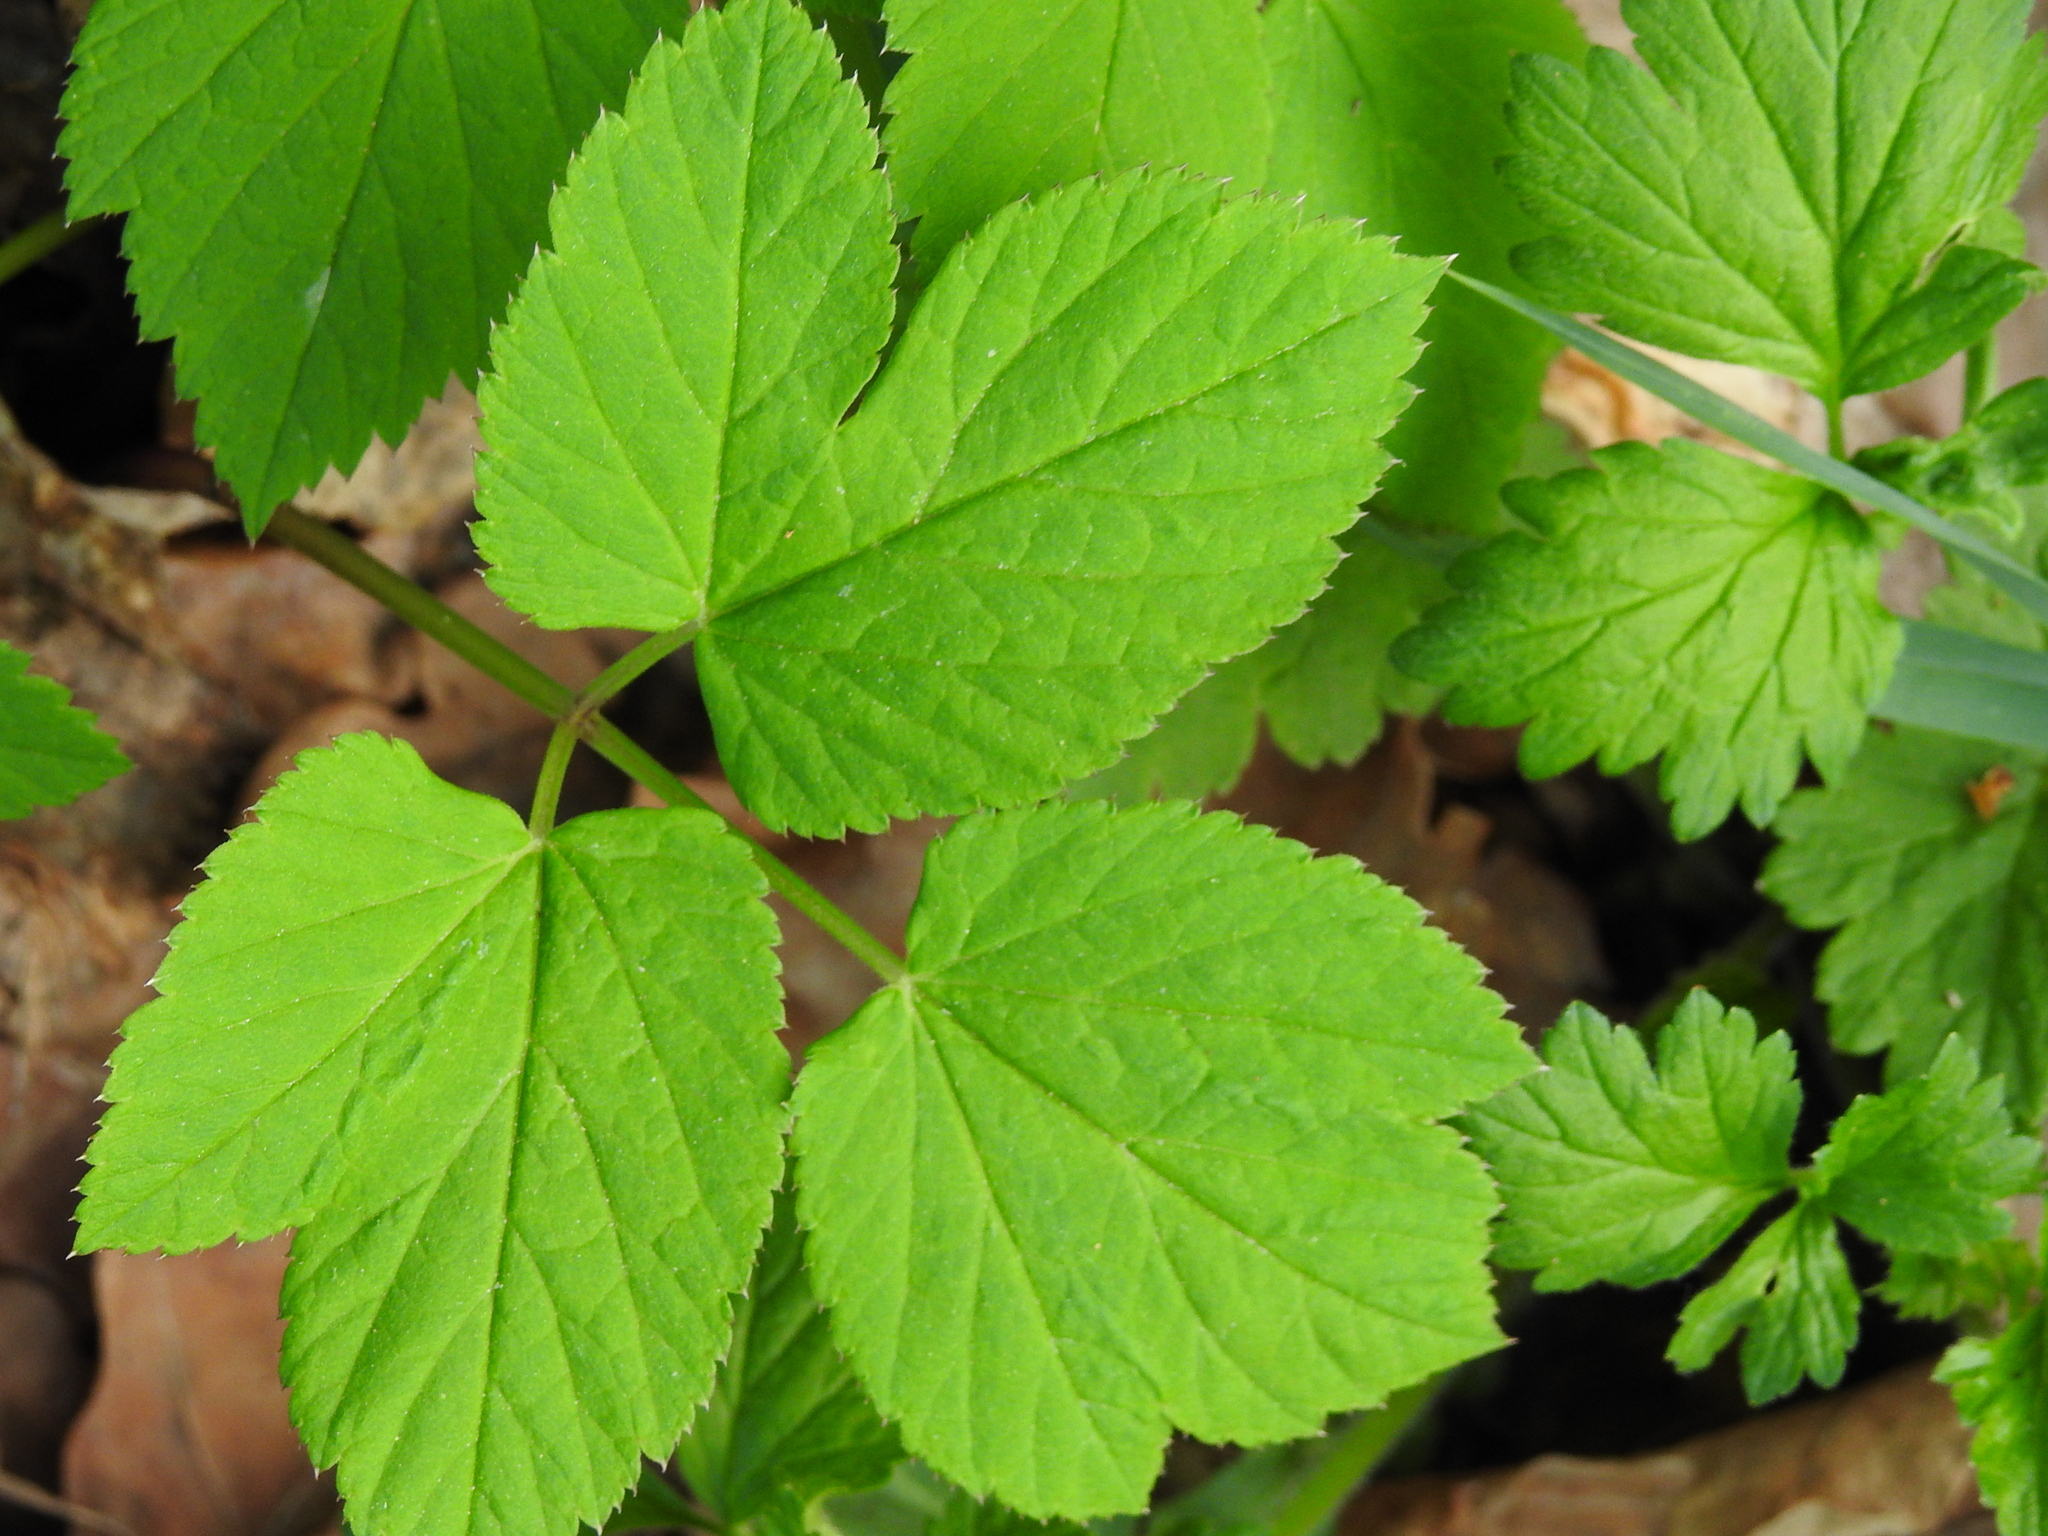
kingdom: Plantae
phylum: Tracheophyta
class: Magnoliopsida
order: Apiales
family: Apiaceae
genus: Aegopodium
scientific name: Aegopodium podagraria
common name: Ground-elder
